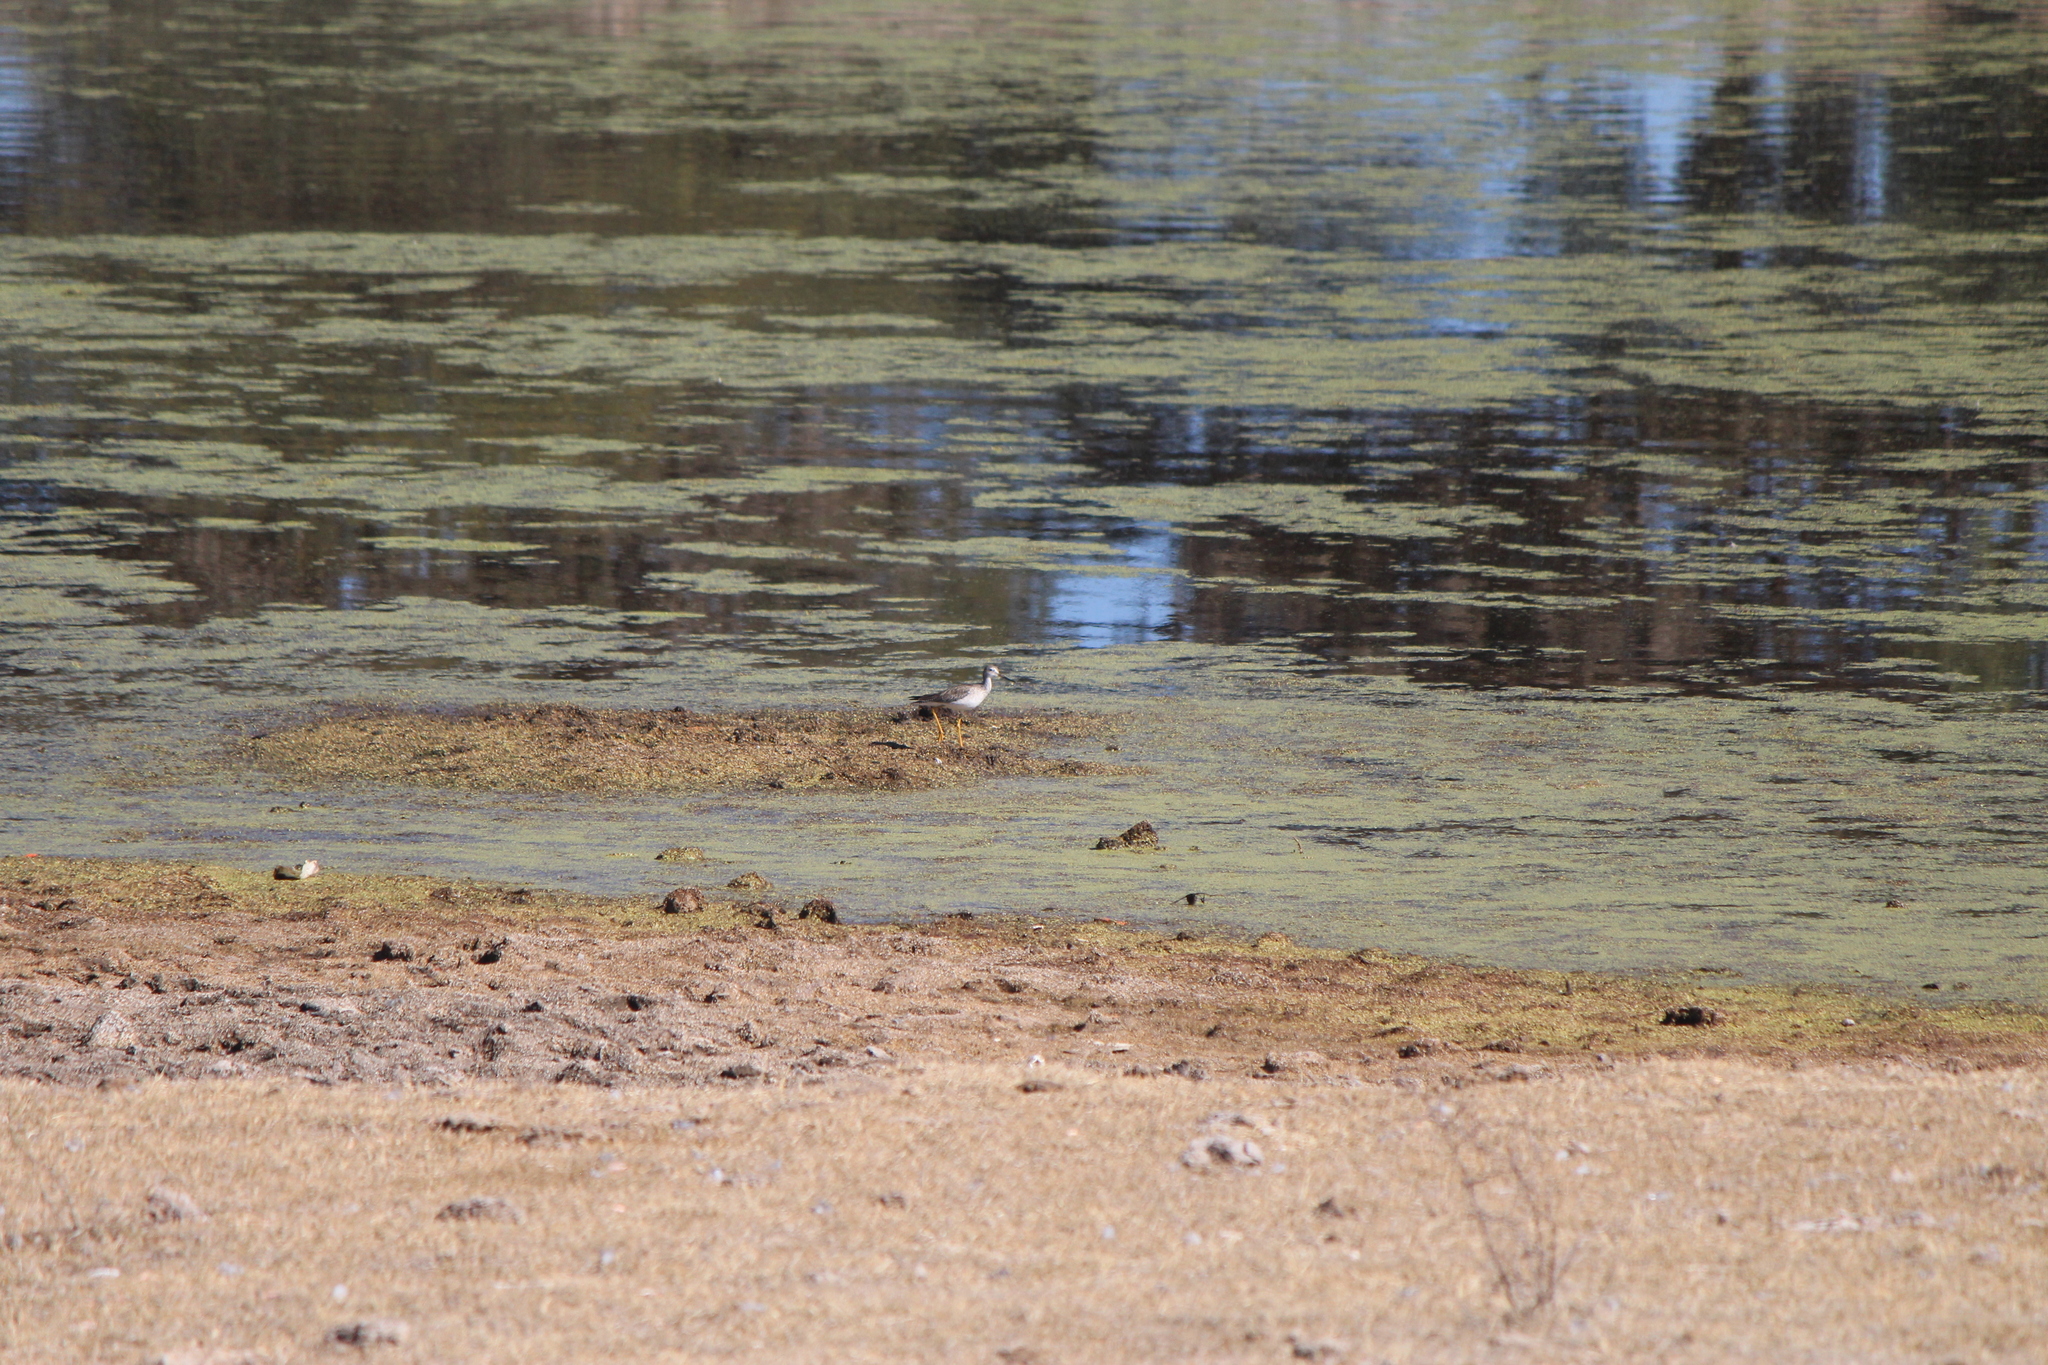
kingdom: Animalia
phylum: Chordata
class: Aves
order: Charadriiformes
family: Scolopacidae
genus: Tringa
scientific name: Tringa melanoleuca
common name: Greater yellowlegs
